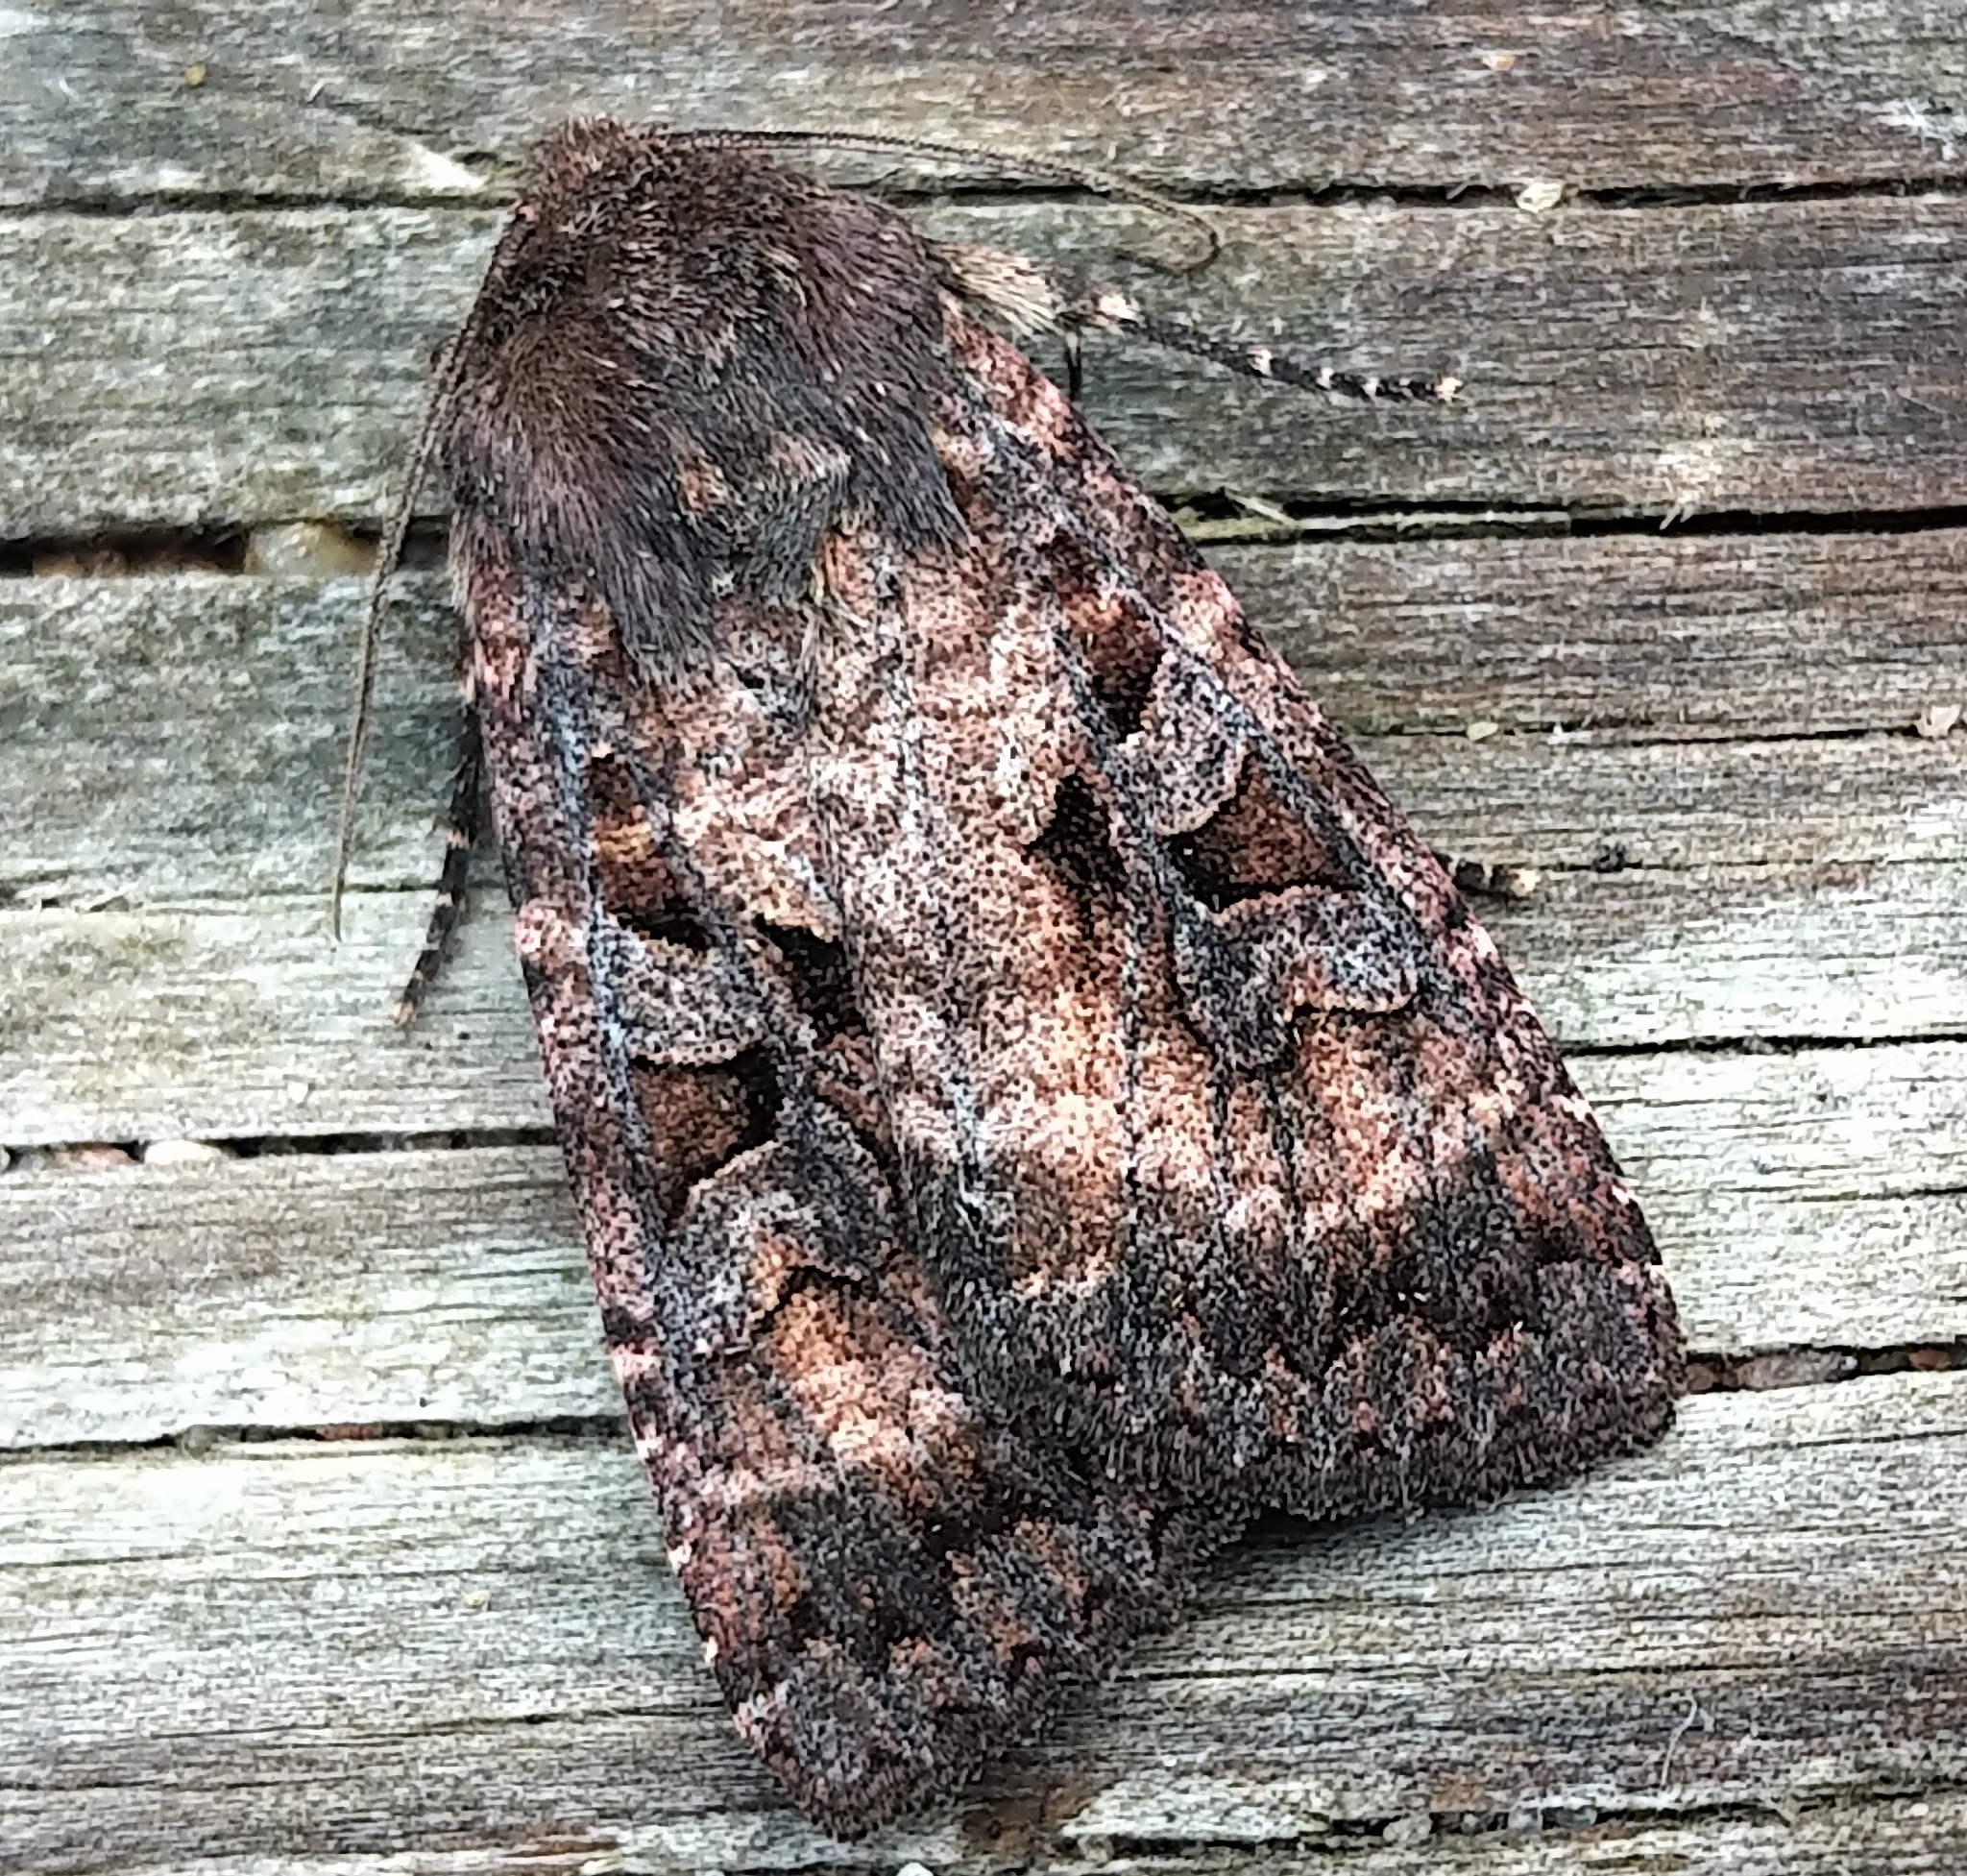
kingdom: Animalia
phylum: Arthropoda
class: Insecta
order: Lepidoptera
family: Noctuidae
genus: Eurois
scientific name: Eurois astricta
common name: Great brown dart
